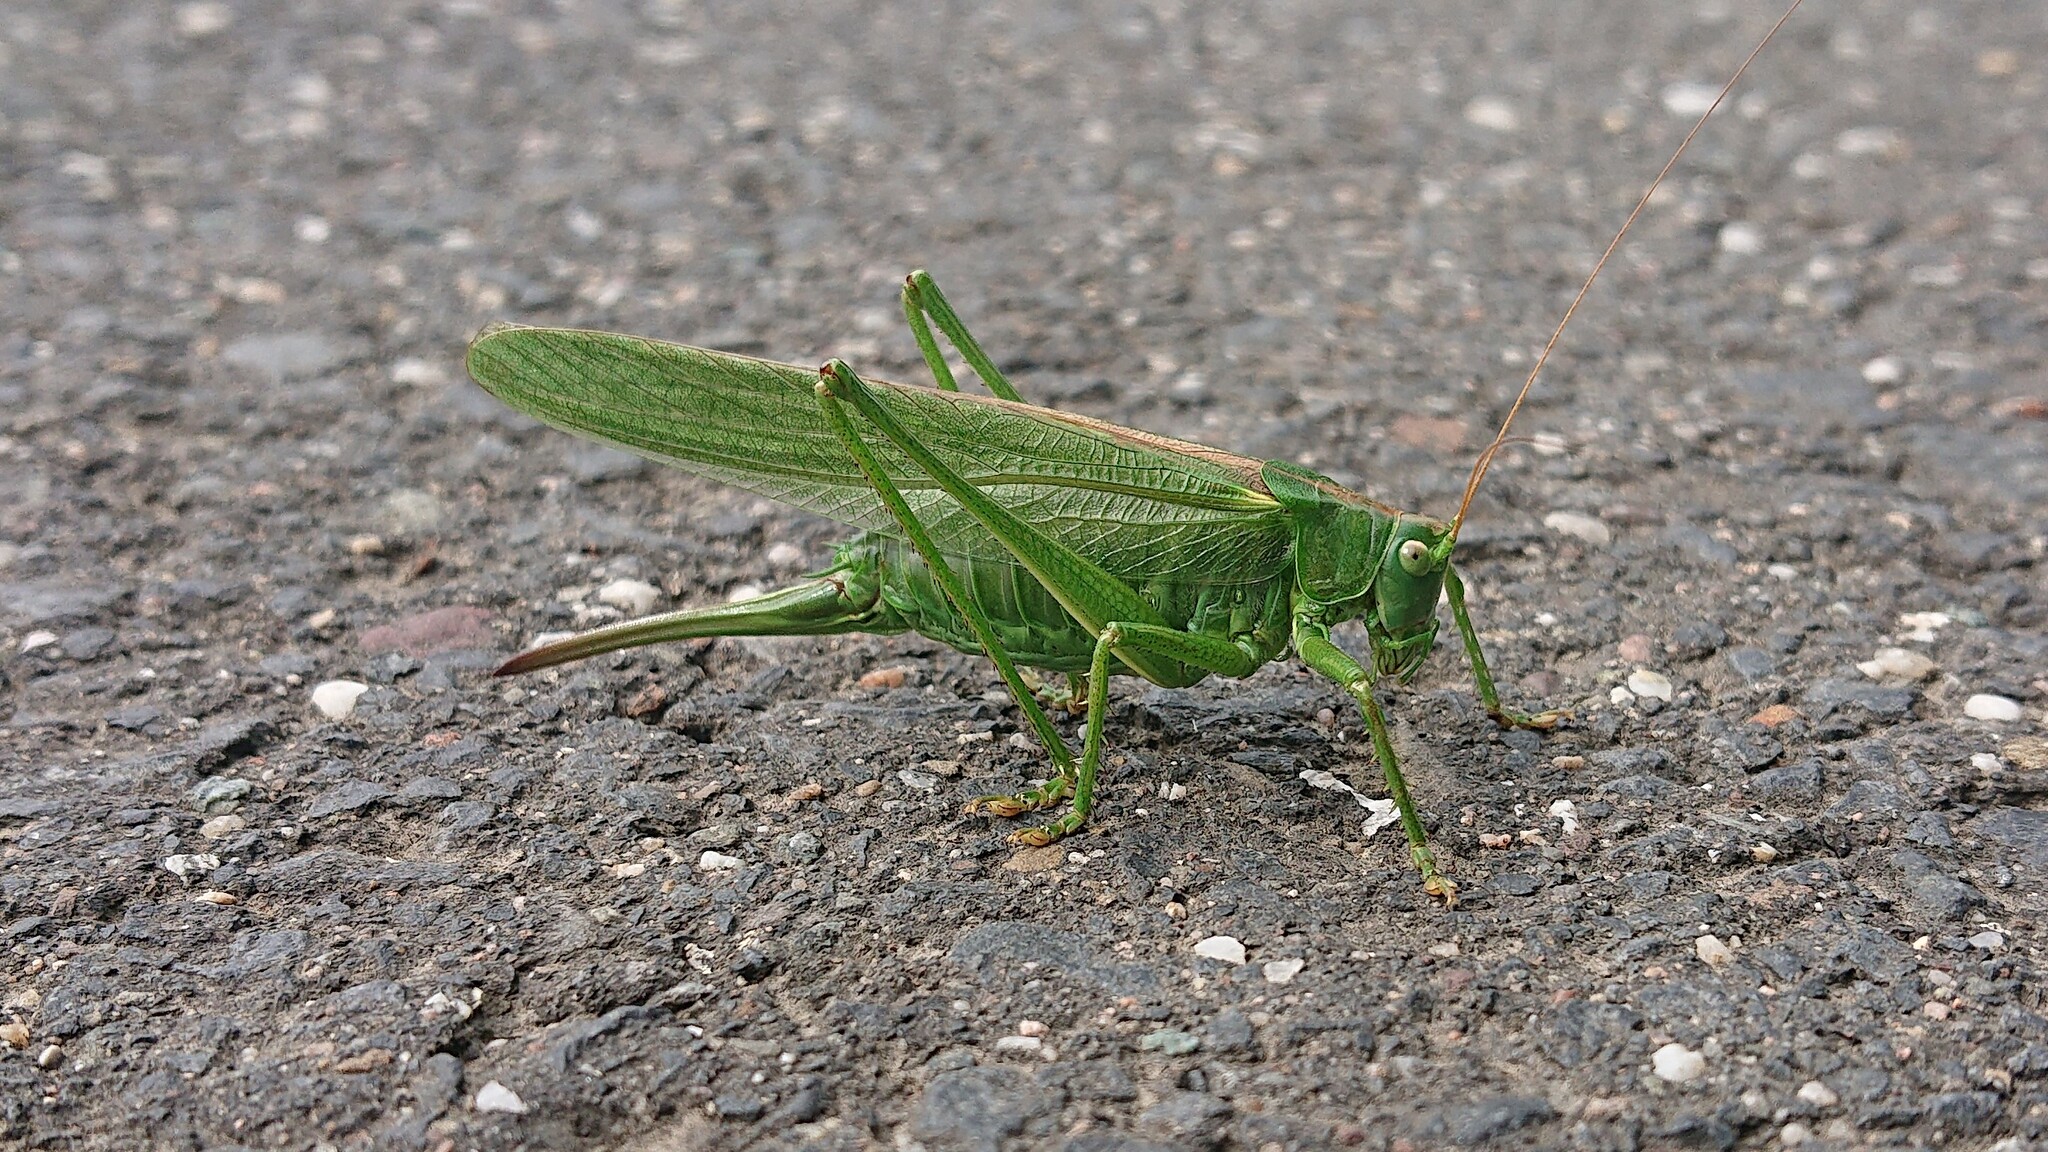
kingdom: Animalia
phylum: Arthropoda
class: Insecta
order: Orthoptera
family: Tettigoniidae
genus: Tettigonia
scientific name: Tettigonia viridissima
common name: Great green bush-cricket
